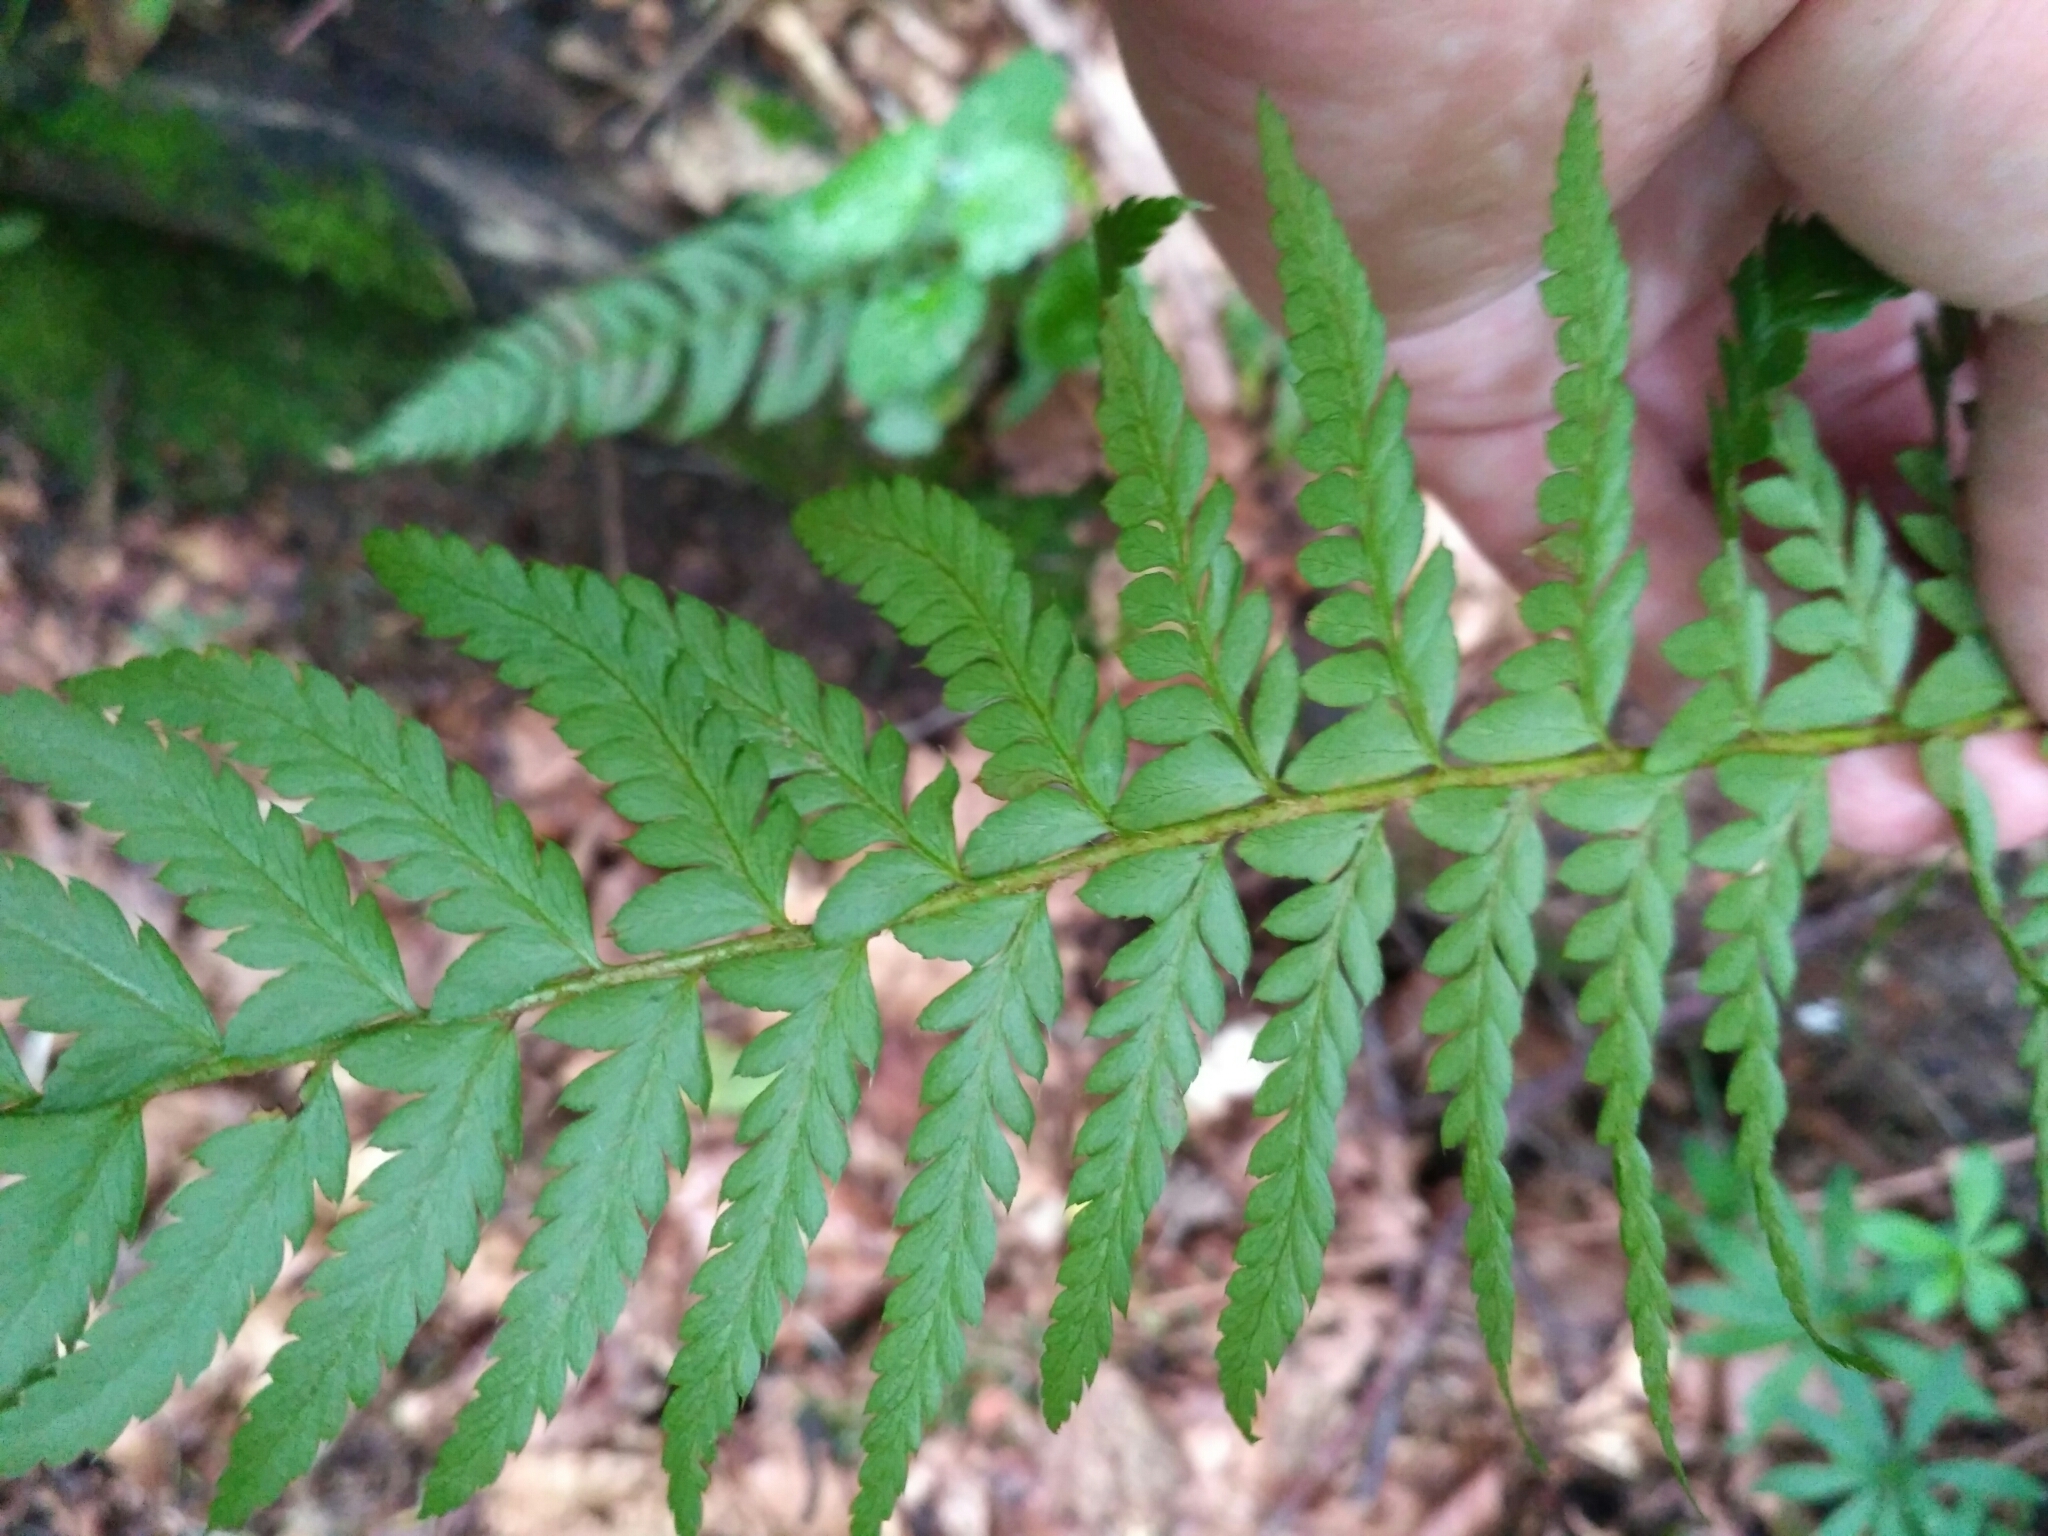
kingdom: Plantae
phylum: Tracheophyta
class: Polypodiopsida
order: Polypodiales
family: Dryopteridaceae
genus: Polystichum
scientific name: Polystichum aculeatum
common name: Hard shield-fern
